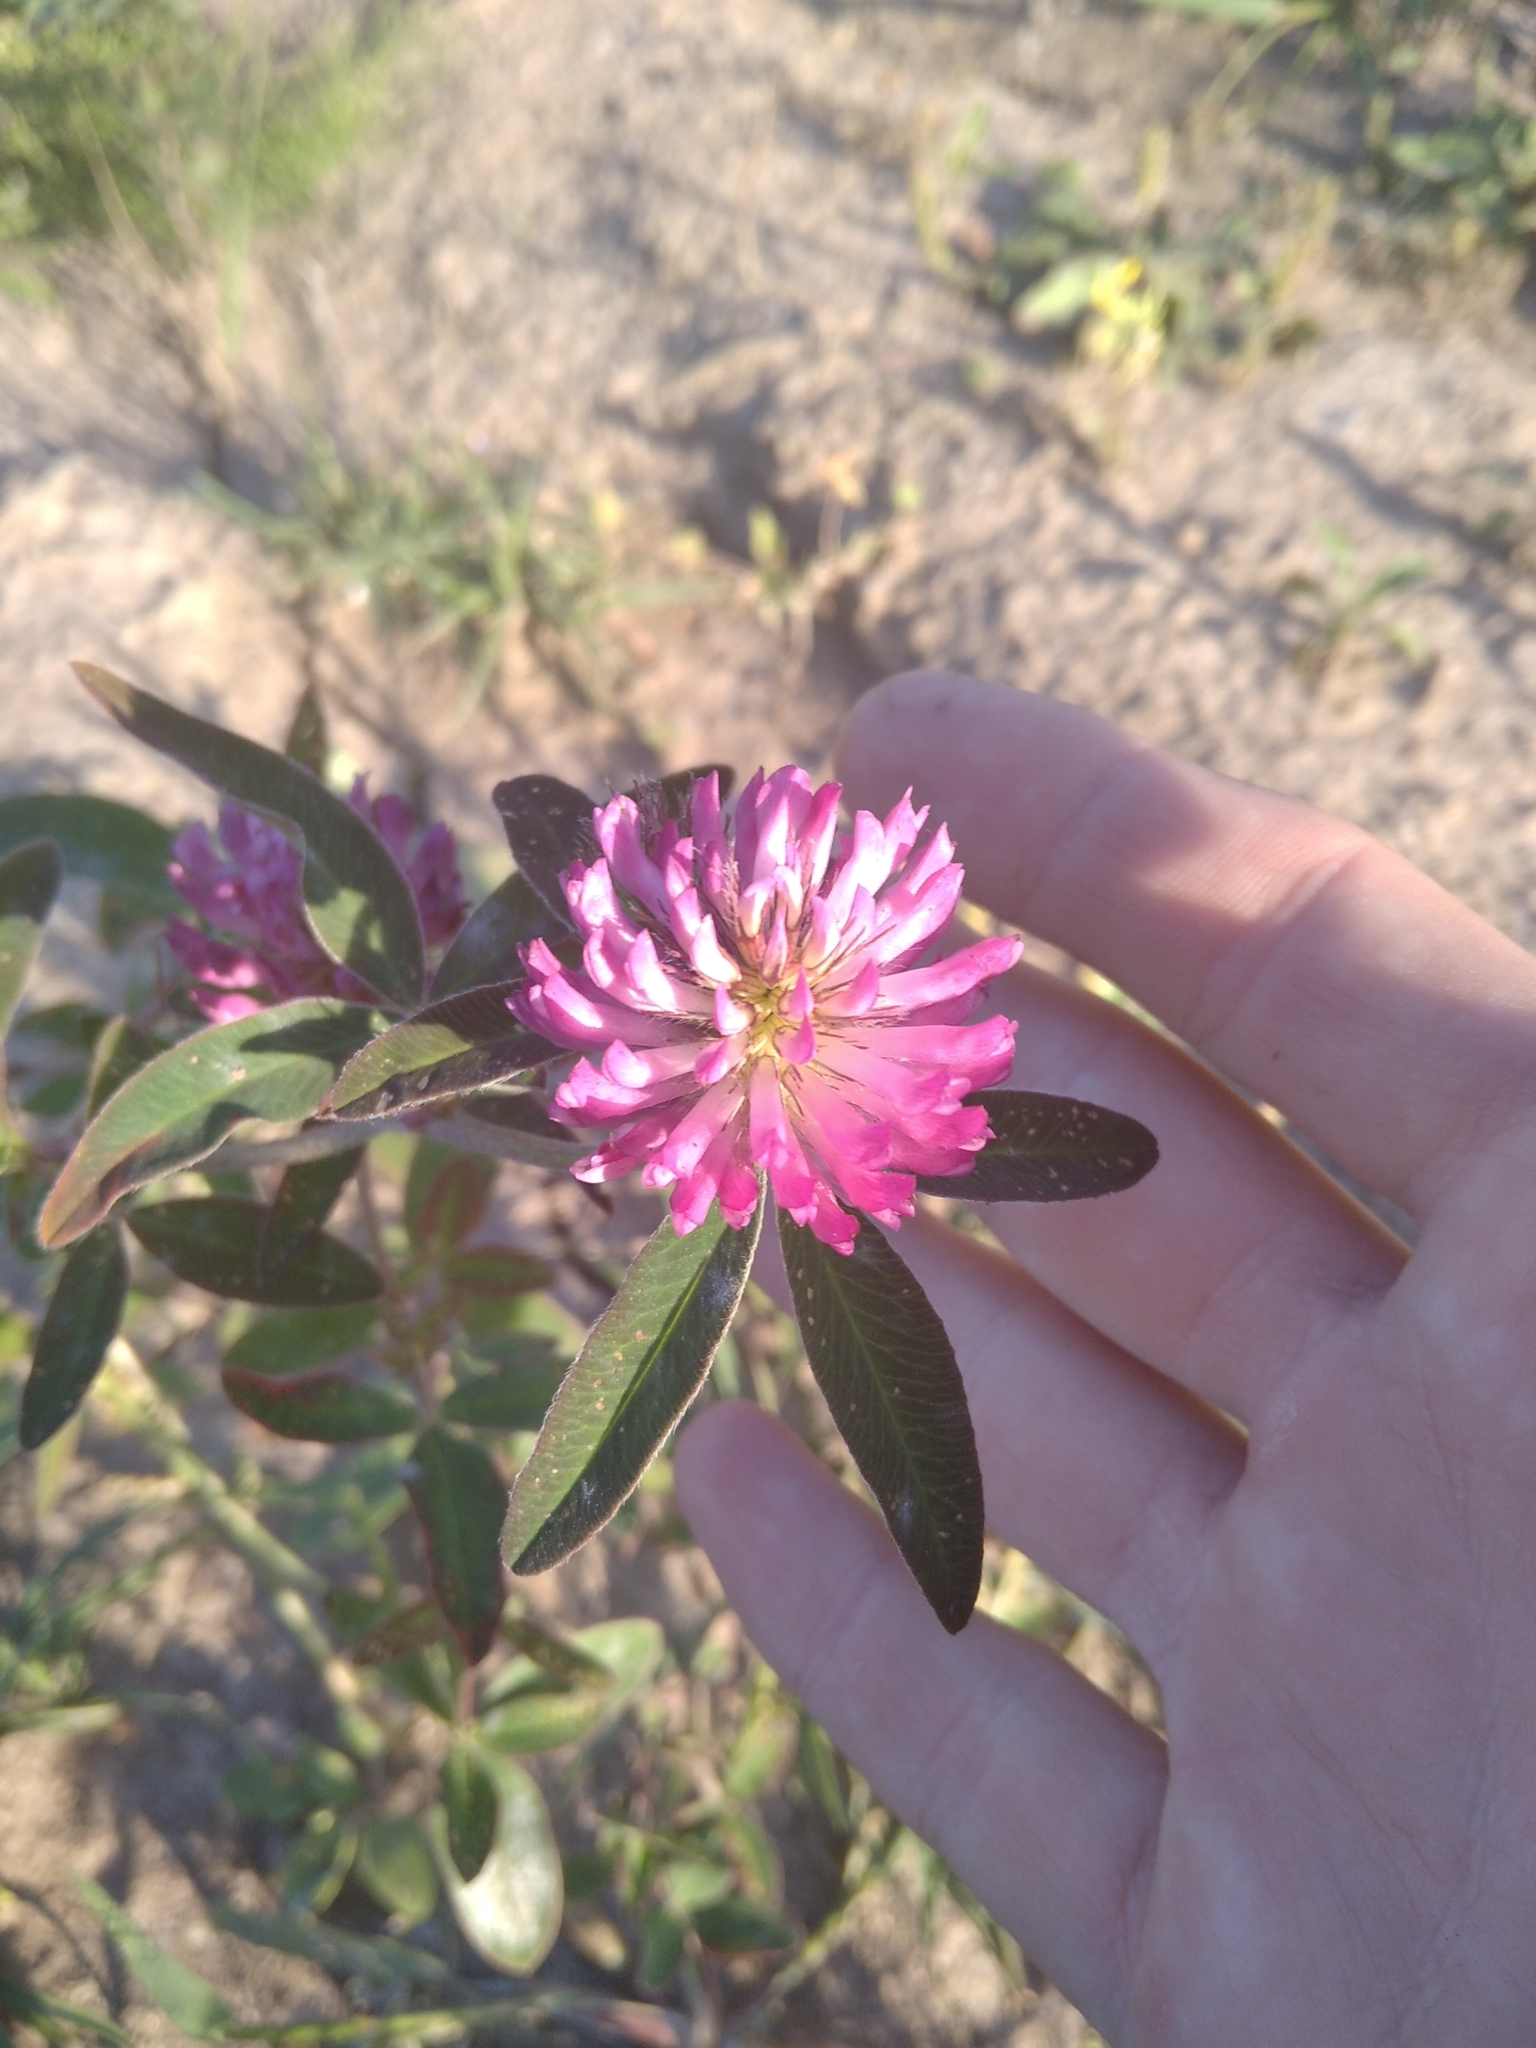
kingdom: Plantae
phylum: Tracheophyta
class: Magnoliopsida
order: Fabales
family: Fabaceae
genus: Trifolium
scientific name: Trifolium medium
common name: Zigzag clover
